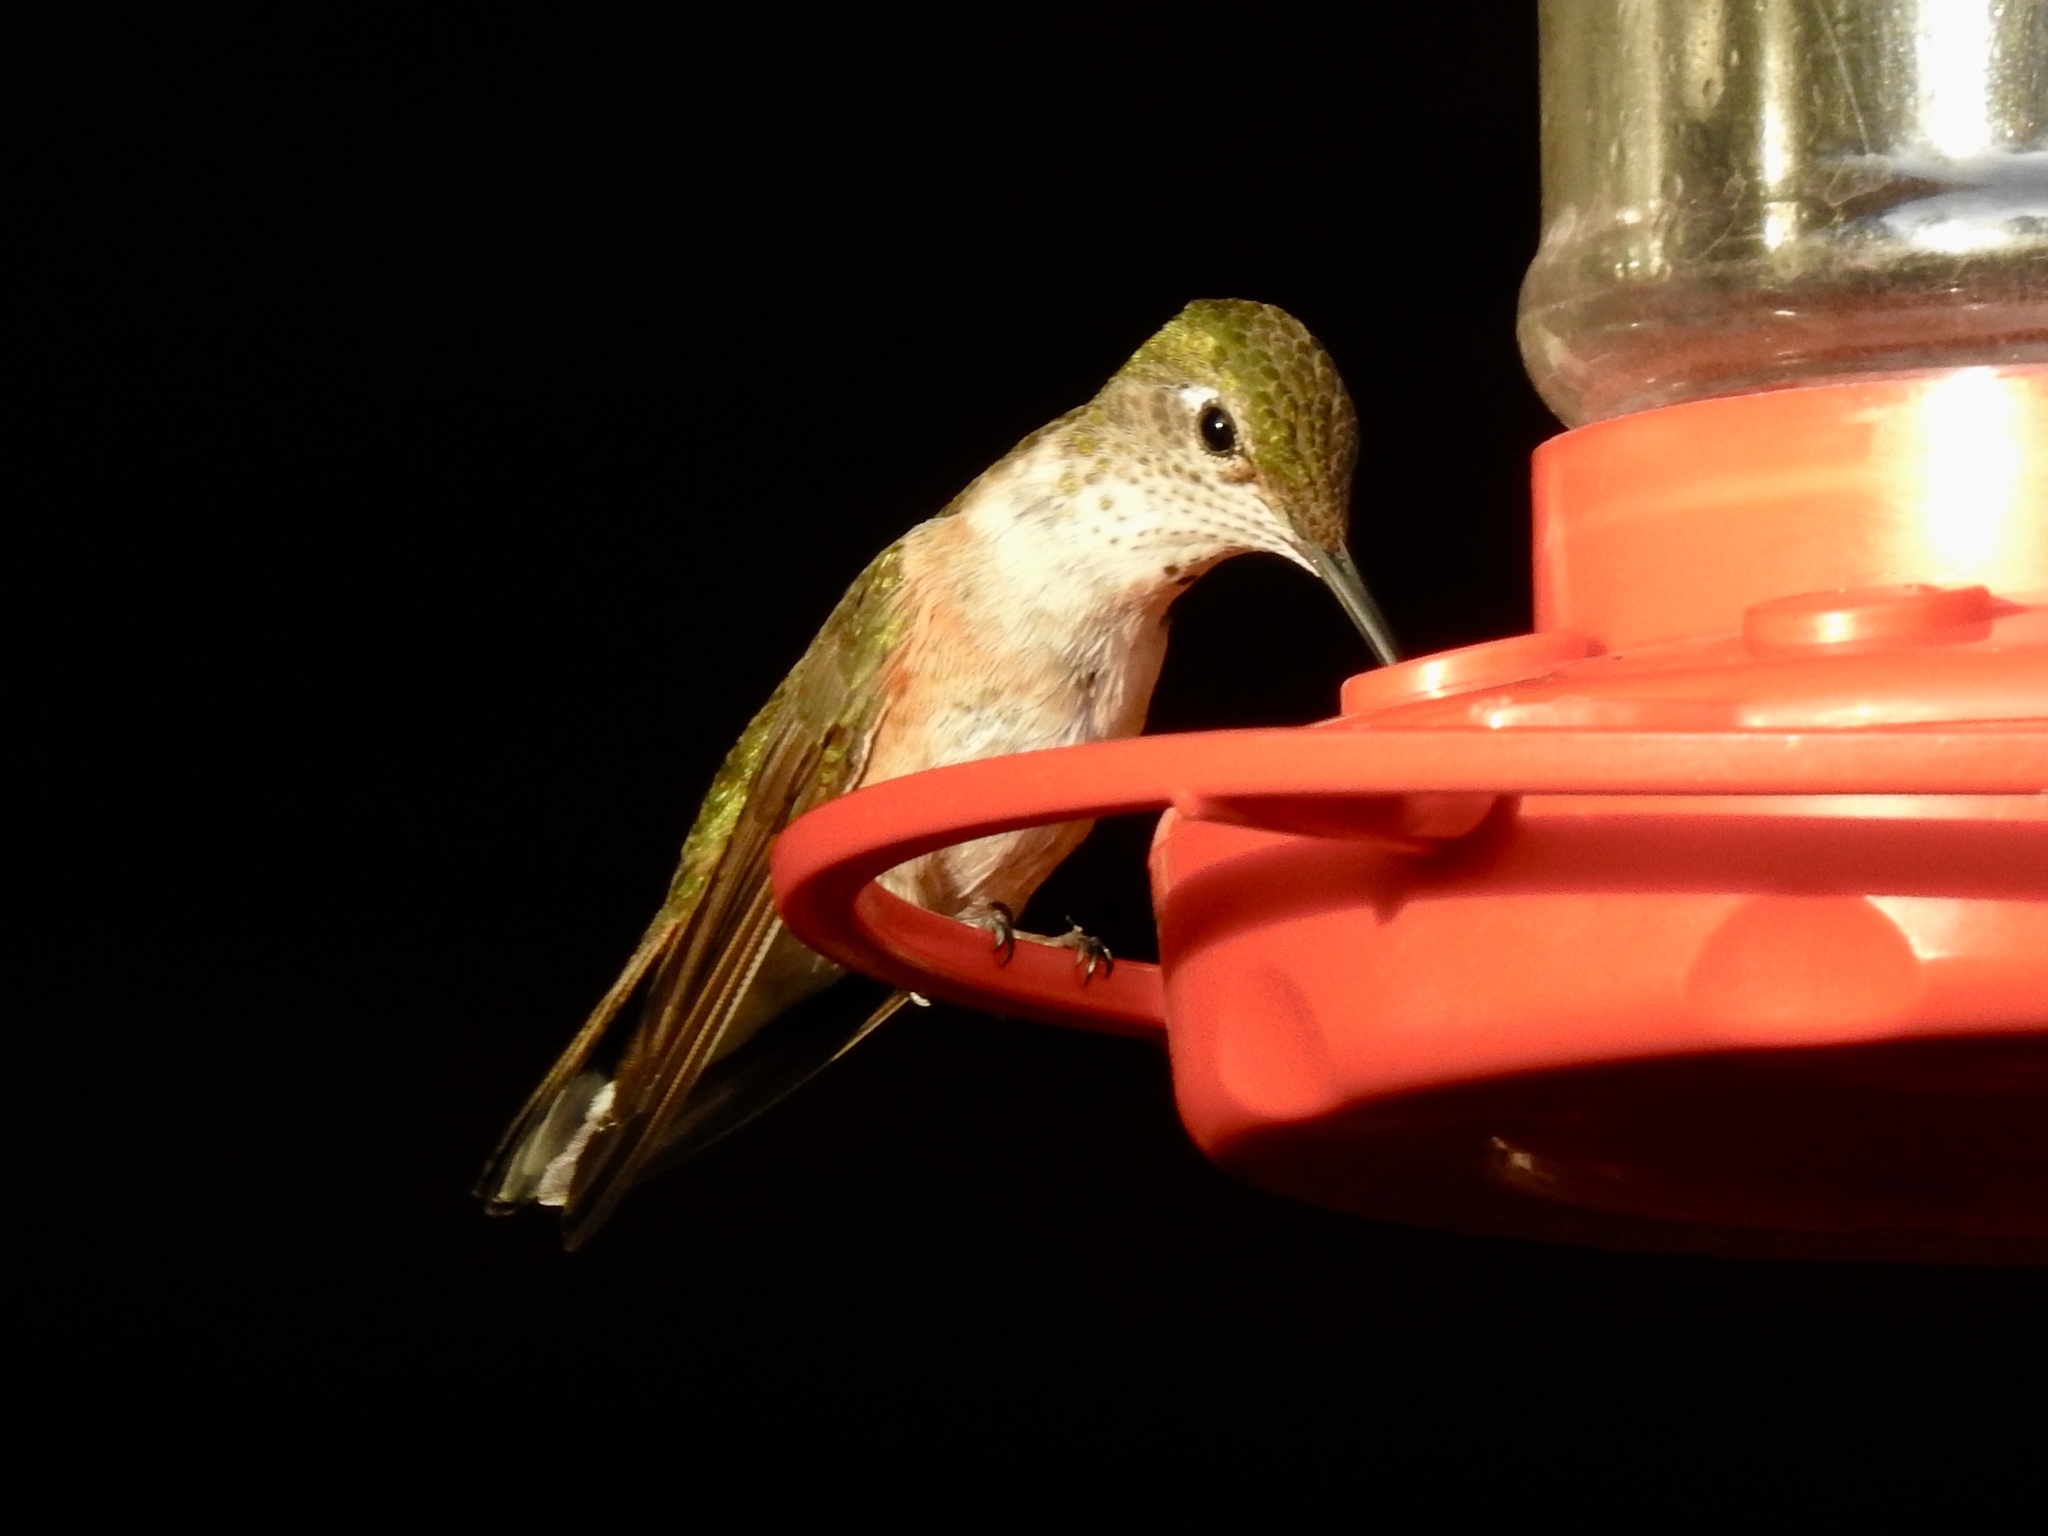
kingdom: Animalia
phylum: Chordata
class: Aves
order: Apodiformes
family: Trochilidae
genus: Selasphorus
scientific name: Selasphorus platycercus
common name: Broad-tailed hummingbird
